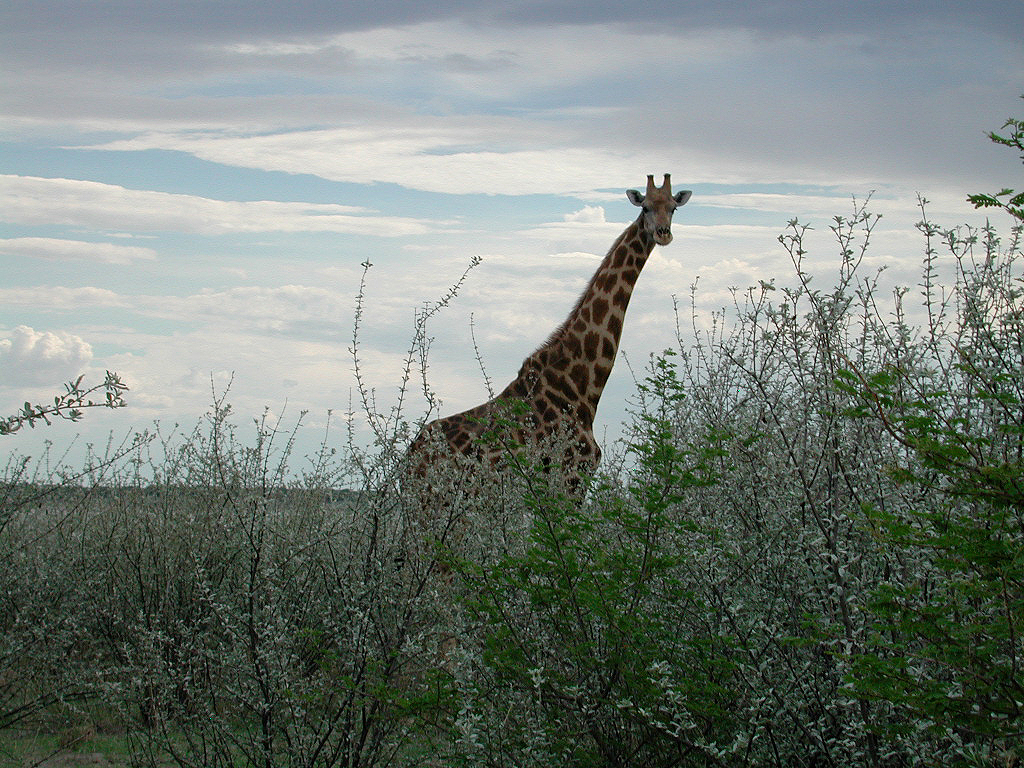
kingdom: Animalia
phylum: Chordata
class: Mammalia
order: Artiodactyla
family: Giraffidae
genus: Giraffa
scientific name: Giraffa giraffa
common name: Southern giraffe
